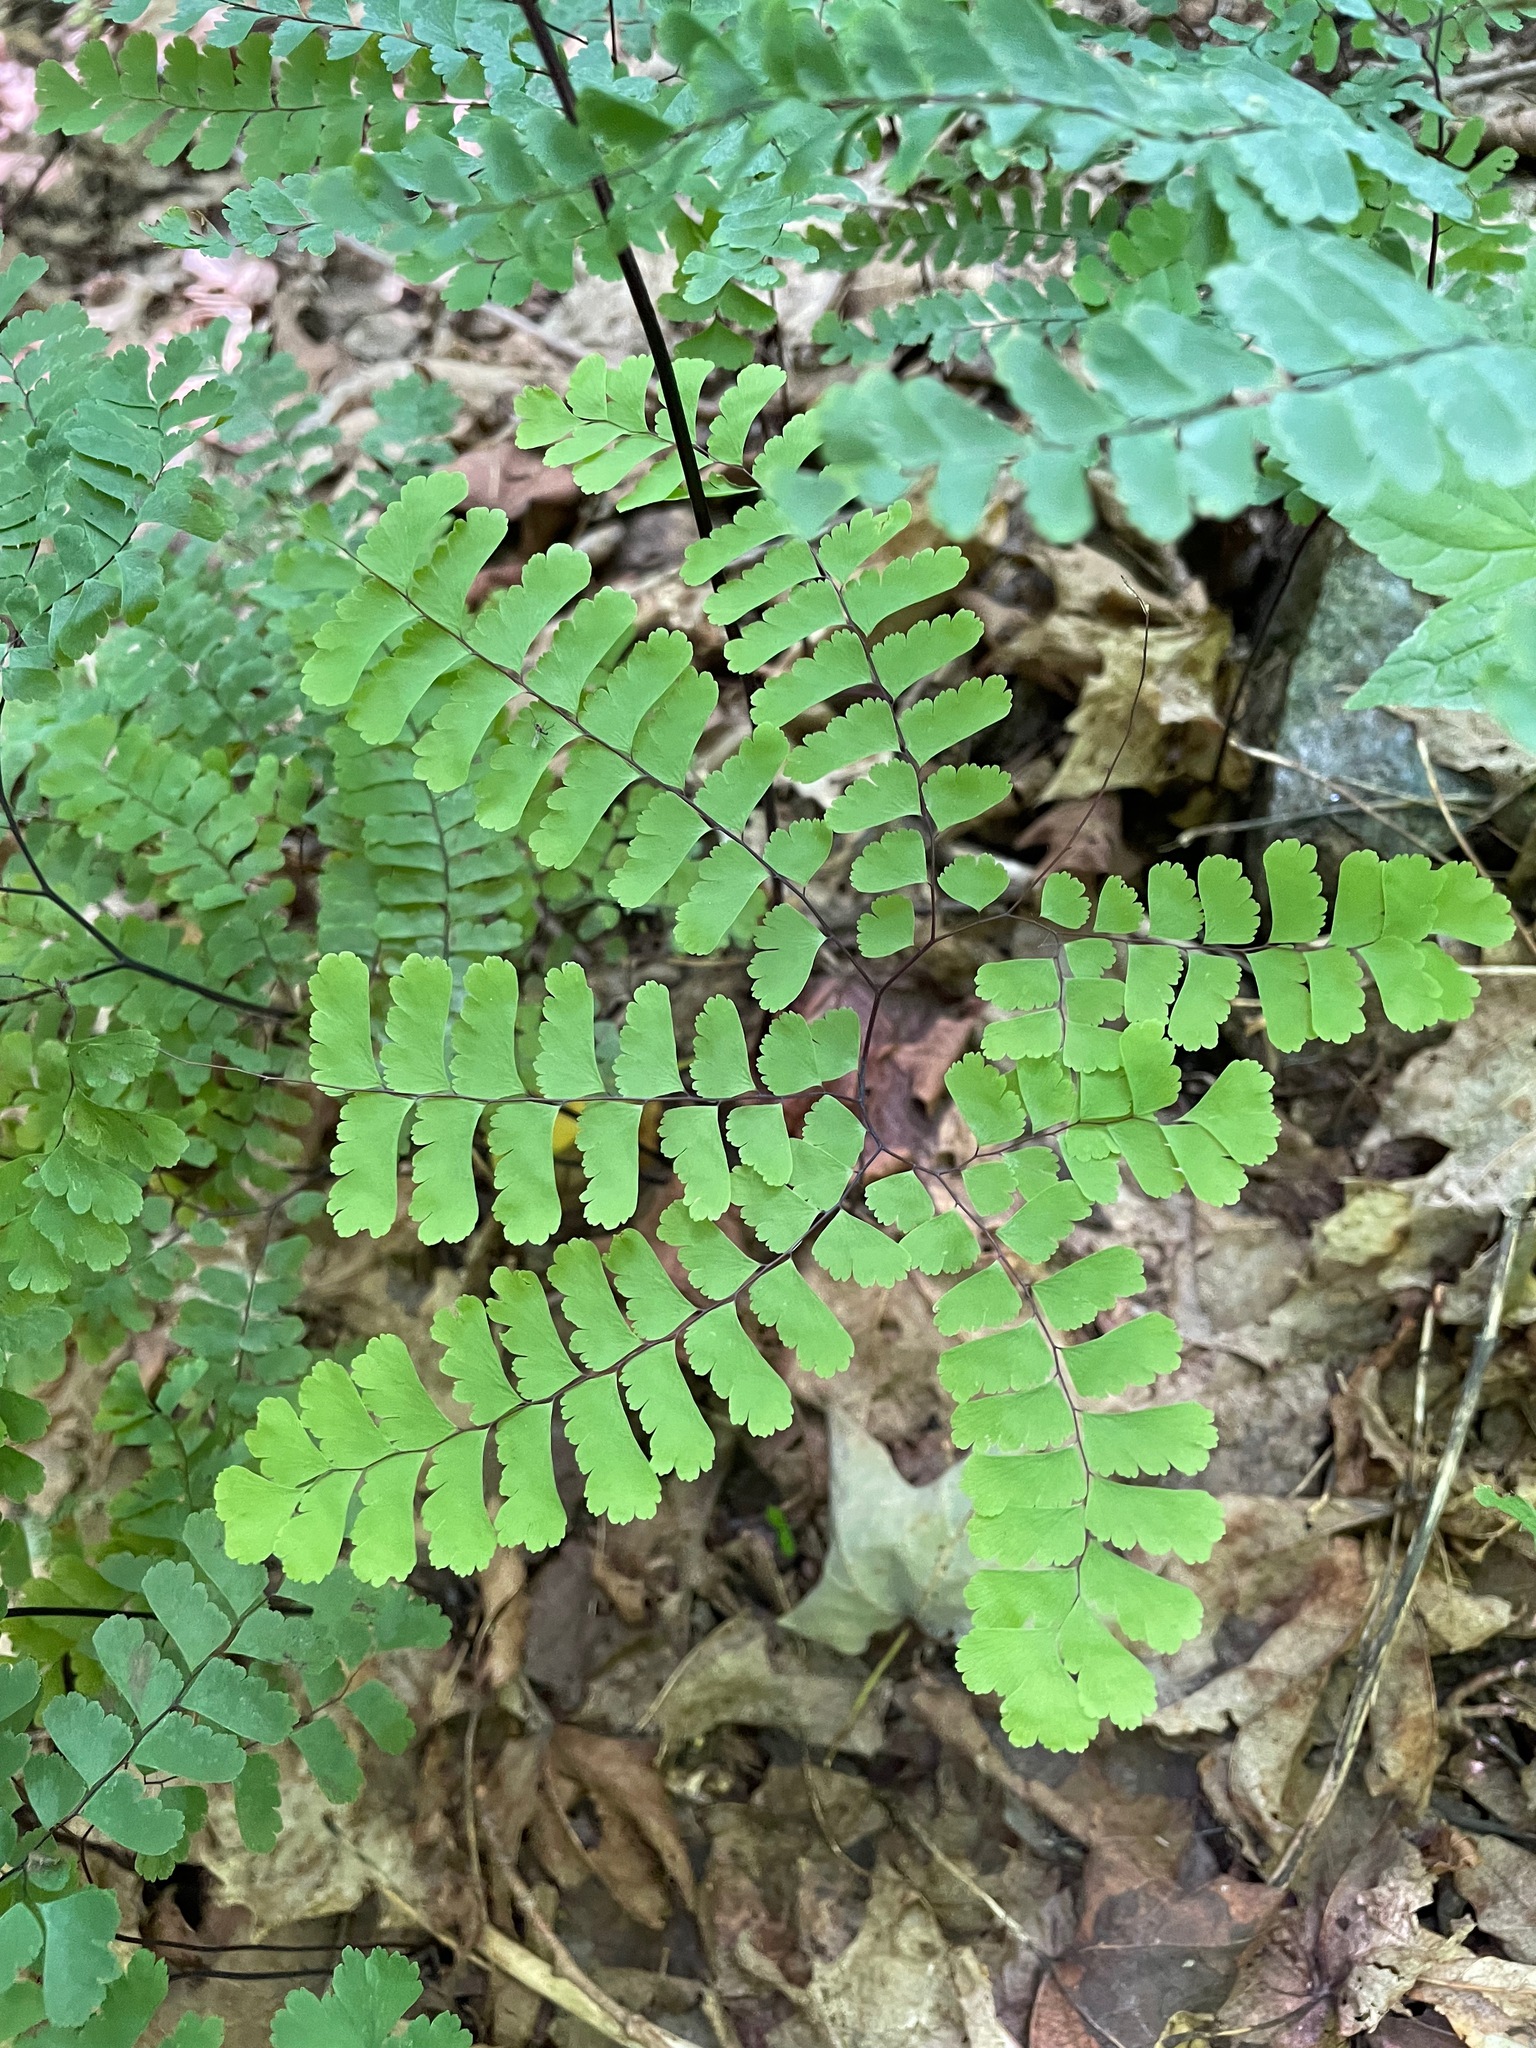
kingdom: Plantae
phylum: Tracheophyta
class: Polypodiopsida
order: Polypodiales
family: Pteridaceae
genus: Adiantum
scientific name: Adiantum pedatum
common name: Five-finger fern
